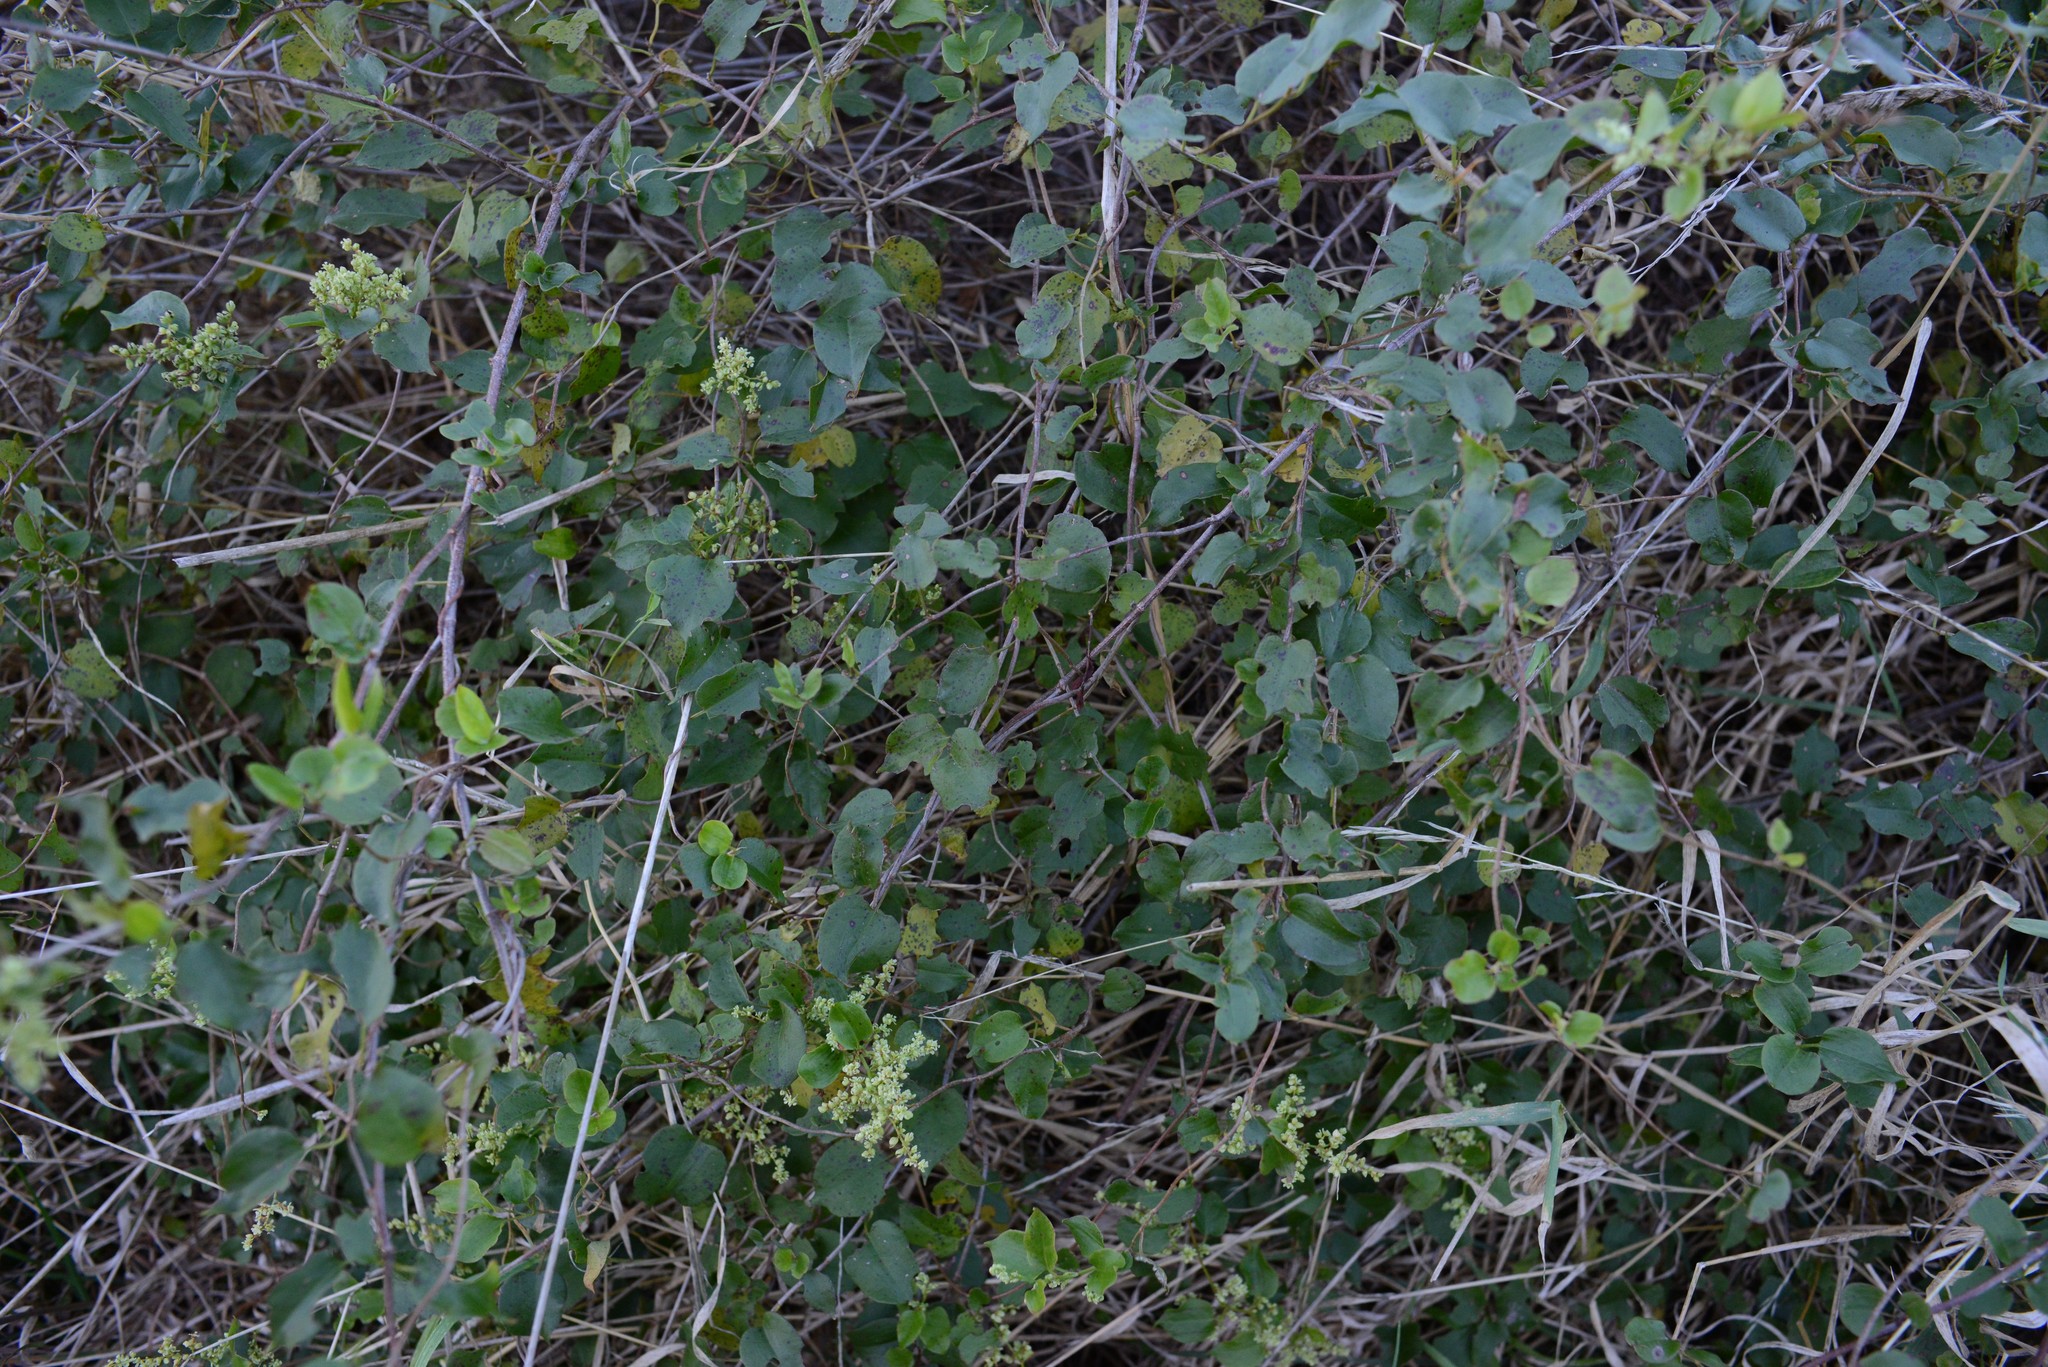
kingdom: Plantae
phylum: Tracheophyta
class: Magnoliopsida
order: Caryophyllales
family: Polygonaceae
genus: Muehlenbeckia
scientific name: Muehlenbeckia australis
